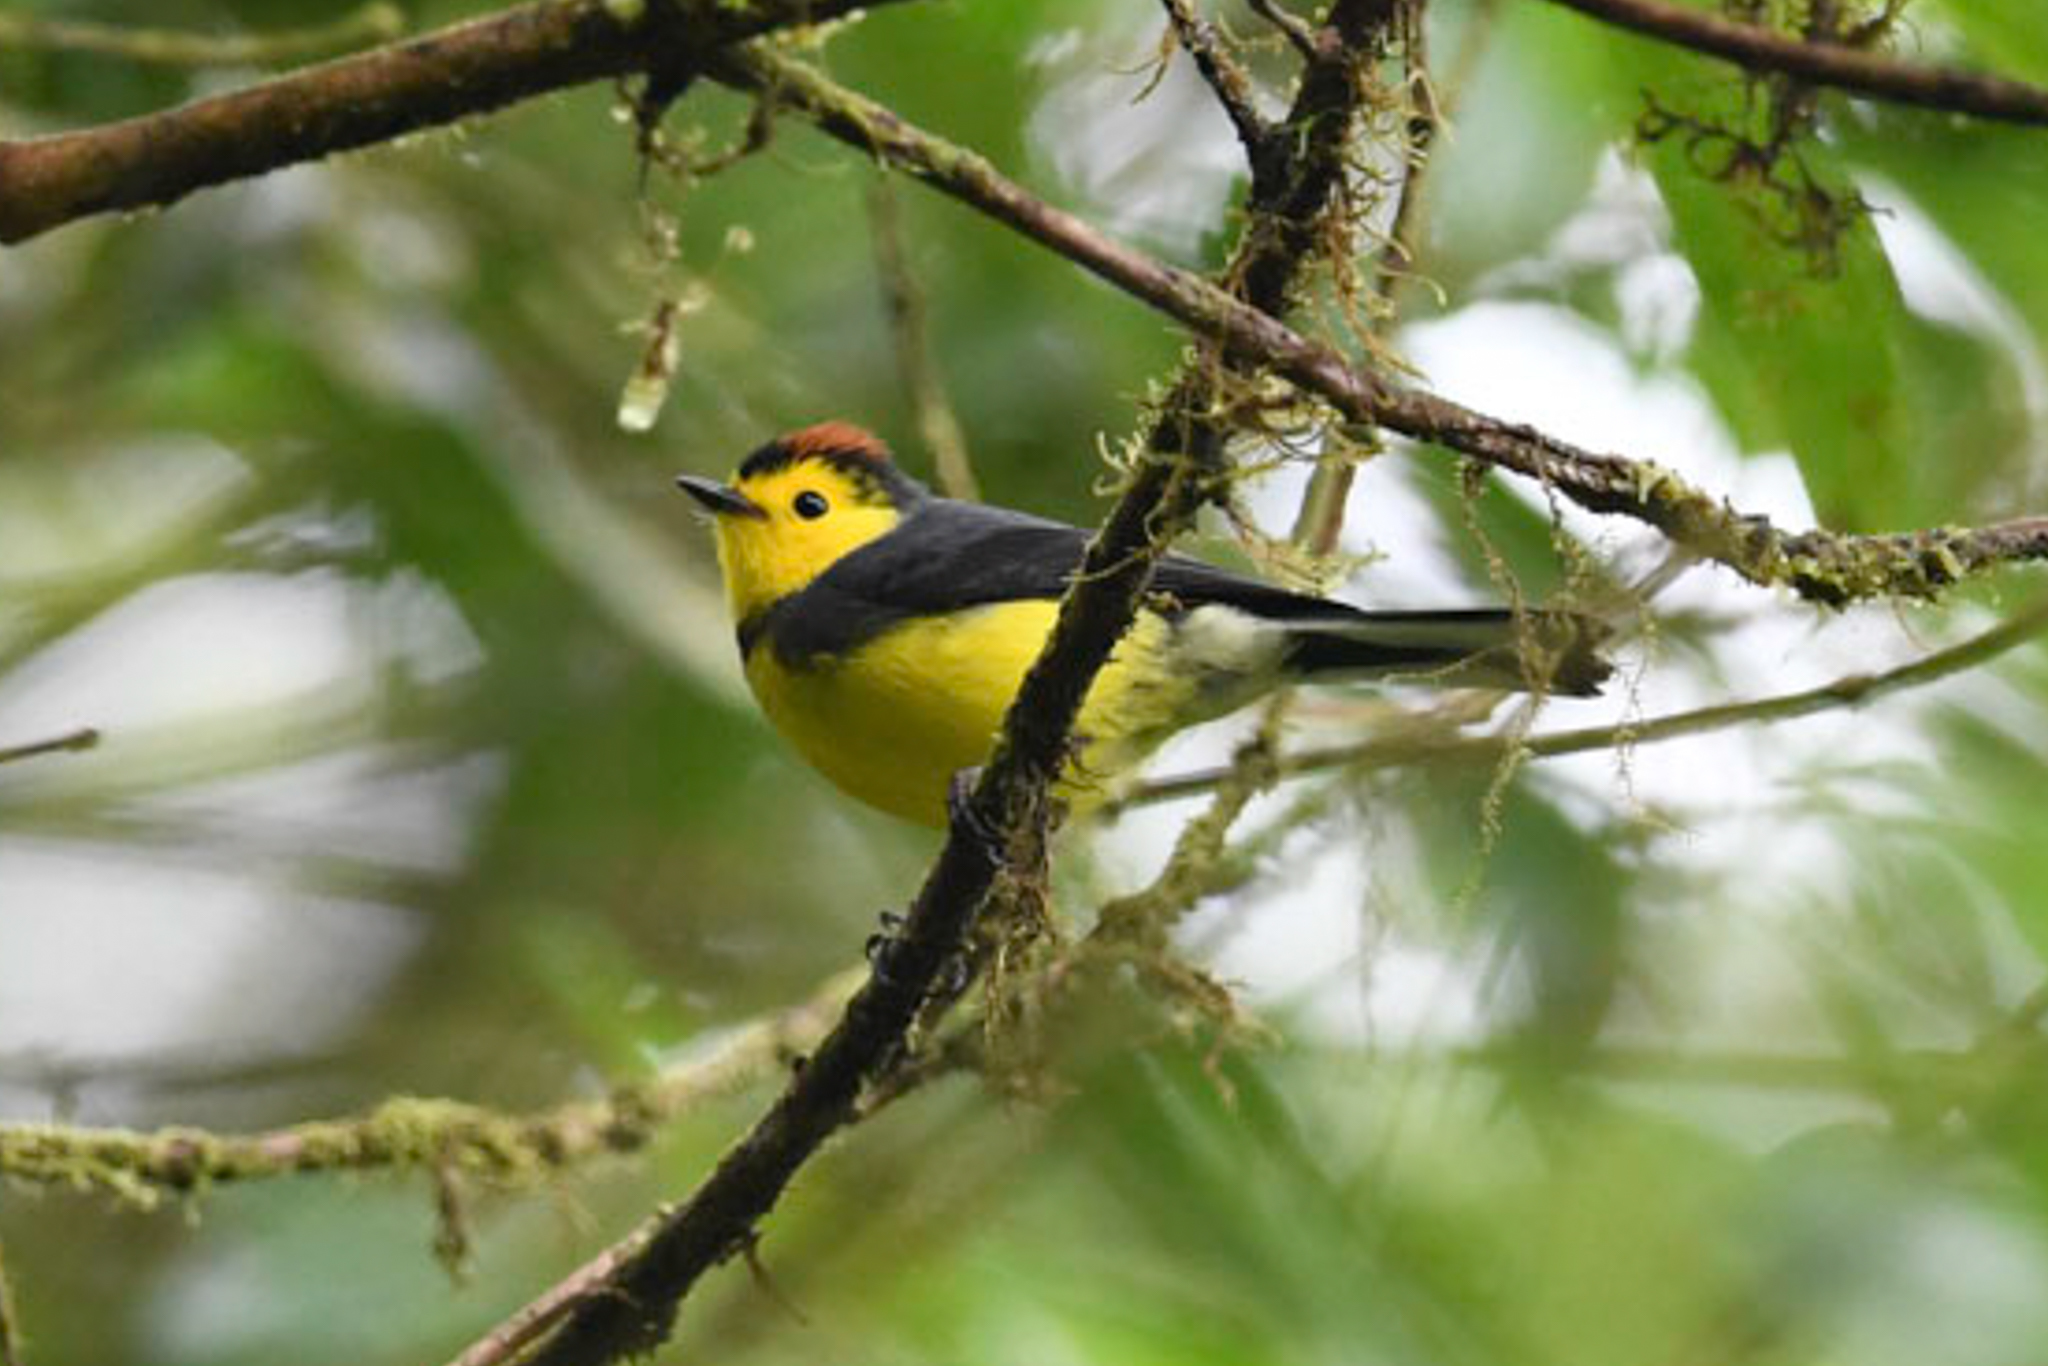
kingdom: Animalia
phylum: Chordata
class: Aves
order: Passeriformes
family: Parulidae
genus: Myioborus
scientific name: Myioborus torquatus
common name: Collared whitestart
